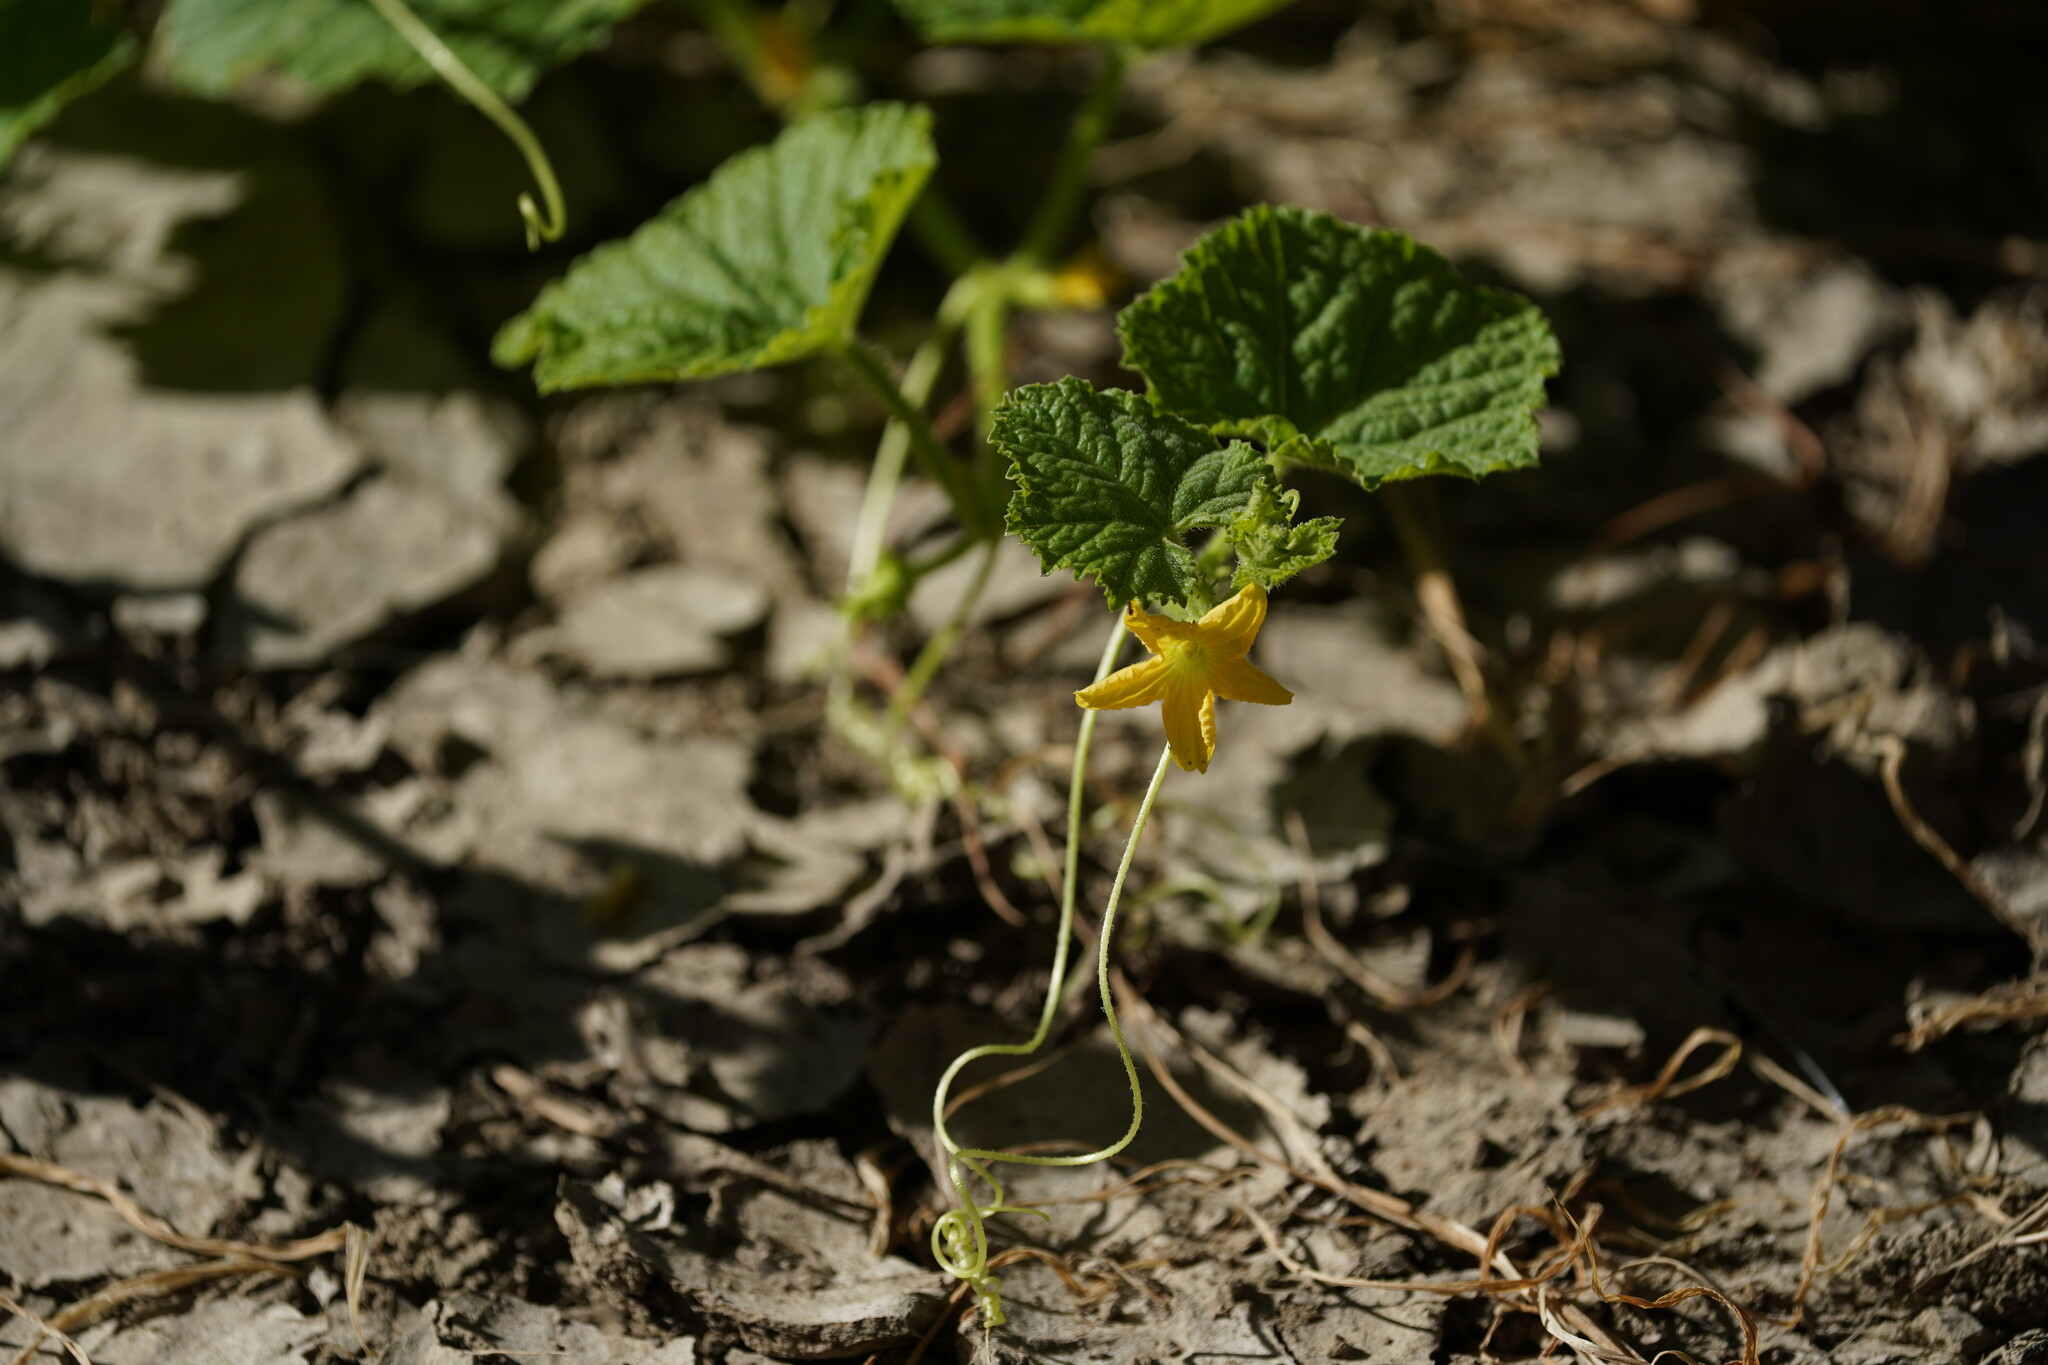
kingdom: Plantae
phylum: Tracheophyta
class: Magnoliopsida
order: Cucurbitales
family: Cucurbitaceae
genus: Cucumis
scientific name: Cucumis melo
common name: Melon
